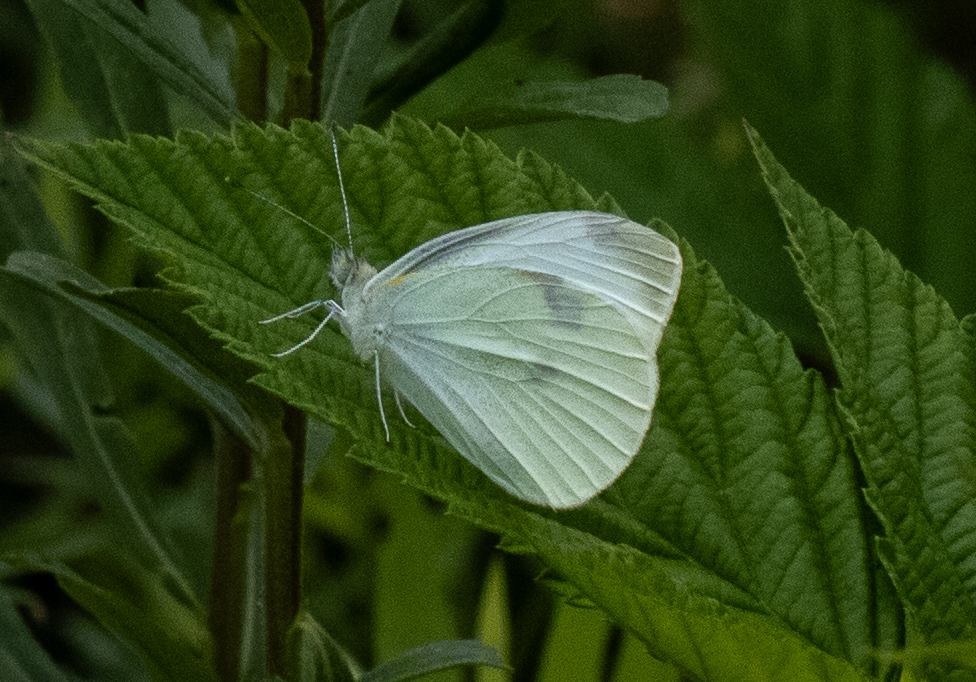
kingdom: Animalia
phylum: Arthropoda
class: Insecta
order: Lepidoptera
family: Pieridae
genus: Pieris
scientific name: Pieris rapae
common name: Small white
